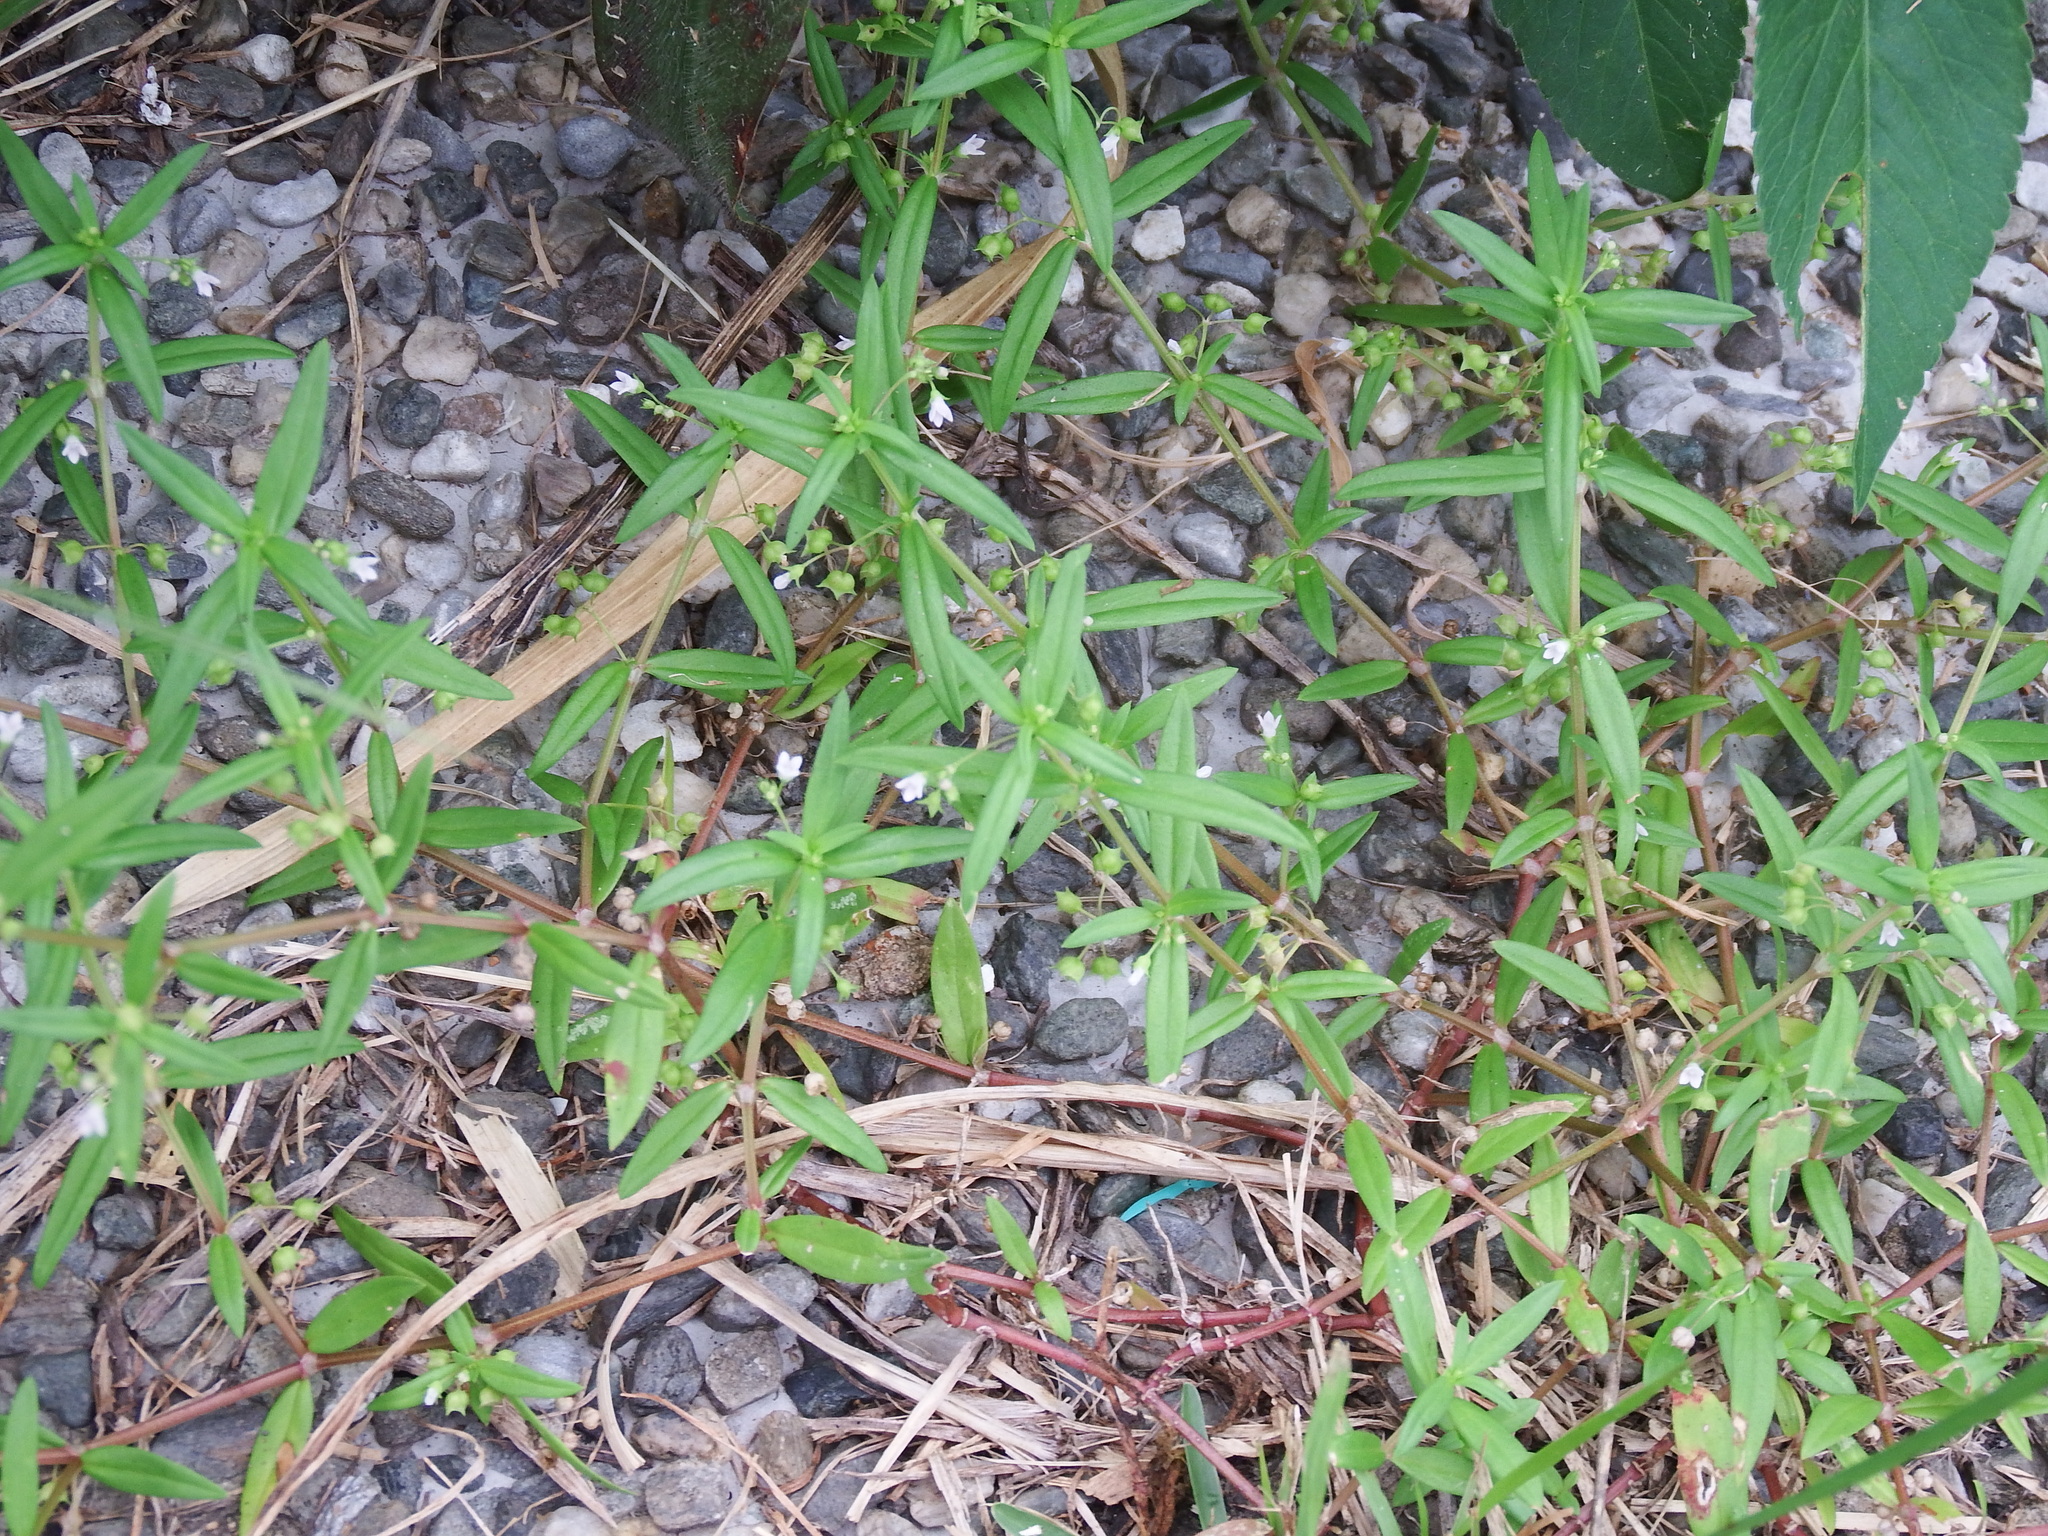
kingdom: Plantae
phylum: Tracheophyta
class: Magnoliopsida
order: Gentianales
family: Rubiaceae
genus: Oldenlandia
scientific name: Oldenlandia corymbosa
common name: Flat-top mille graines
